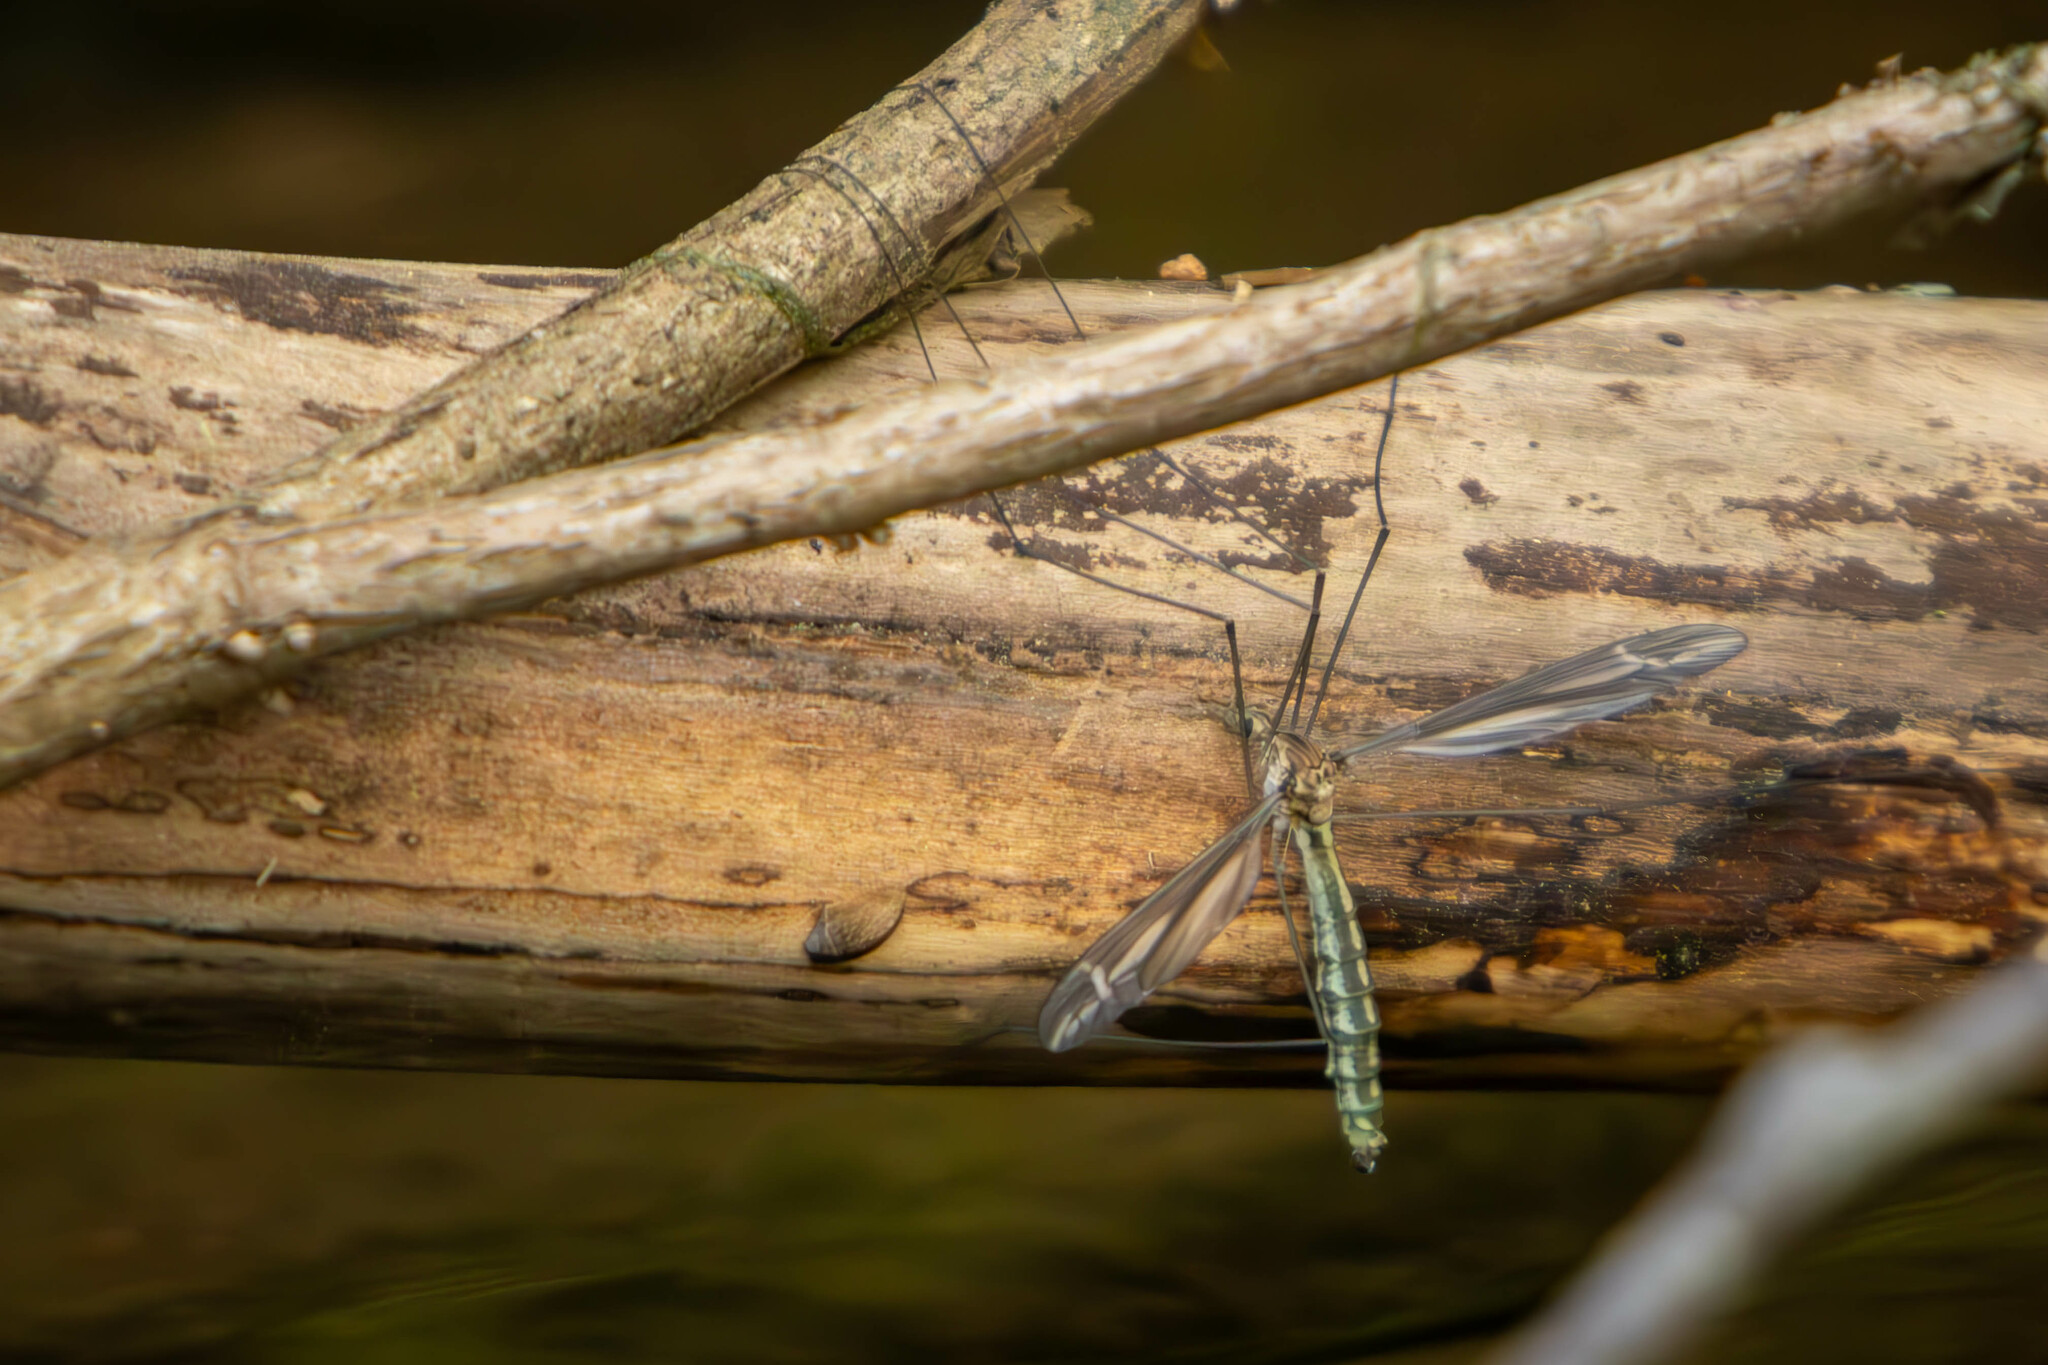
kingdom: Animalia
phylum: Arthropoda
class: Insecta
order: Diptera
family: Tipulidae
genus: Tipula
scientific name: Tipula caloptera
